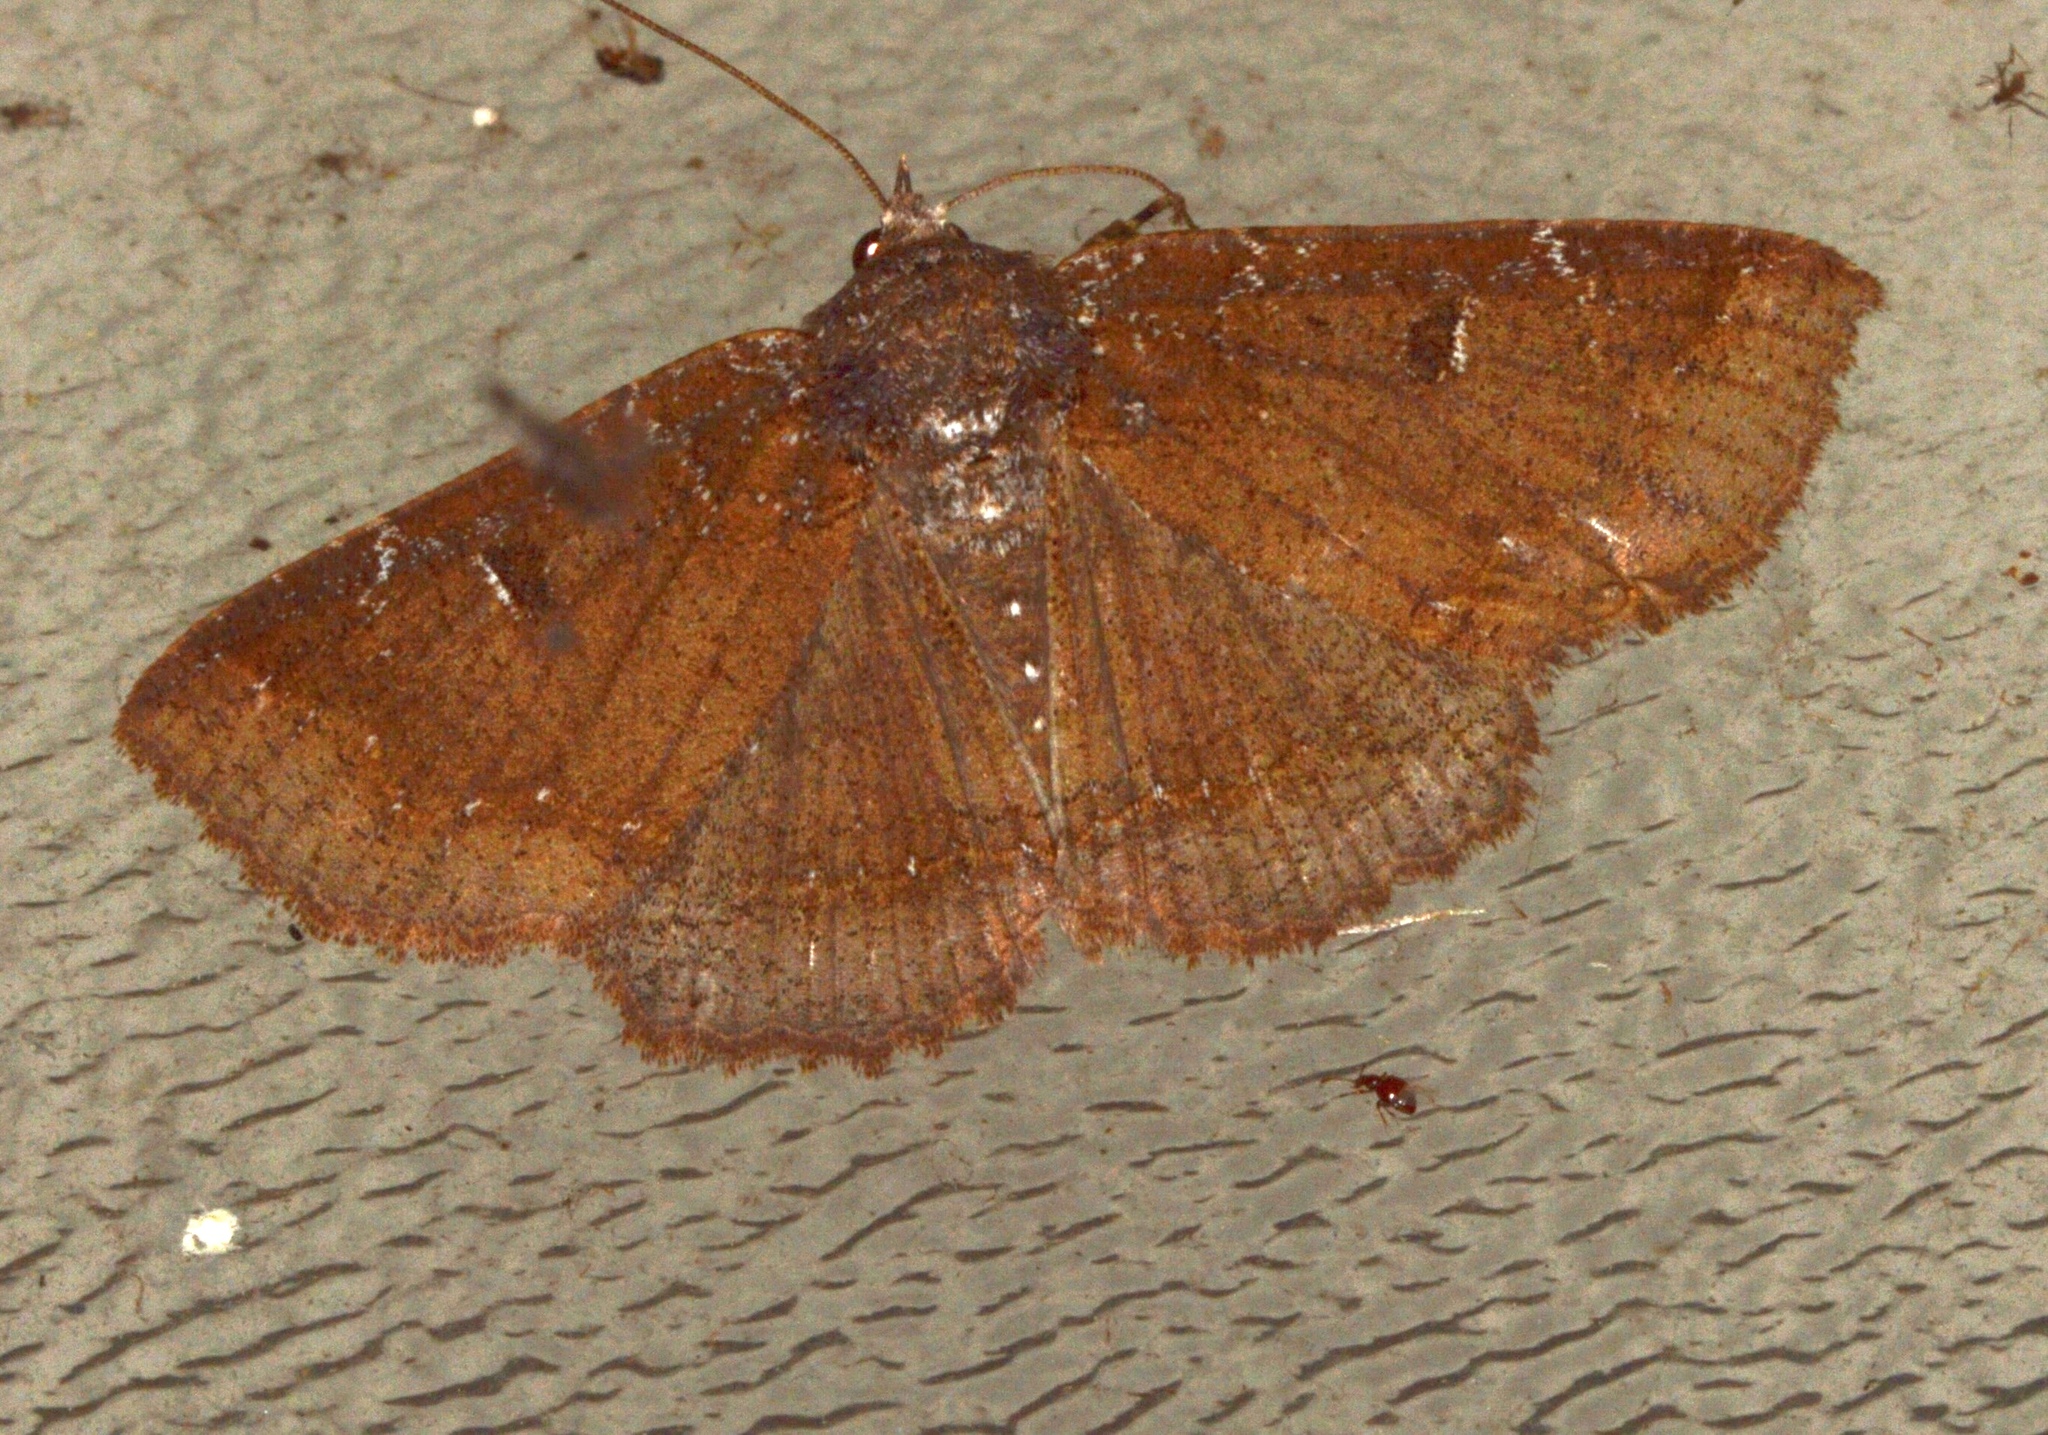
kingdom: Animalia
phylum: Arthropoda
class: Insecta
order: Lepidoptera
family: Geometridae
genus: Ilexia
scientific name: Ilexia intractata
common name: Black-dotted ruddy moth
